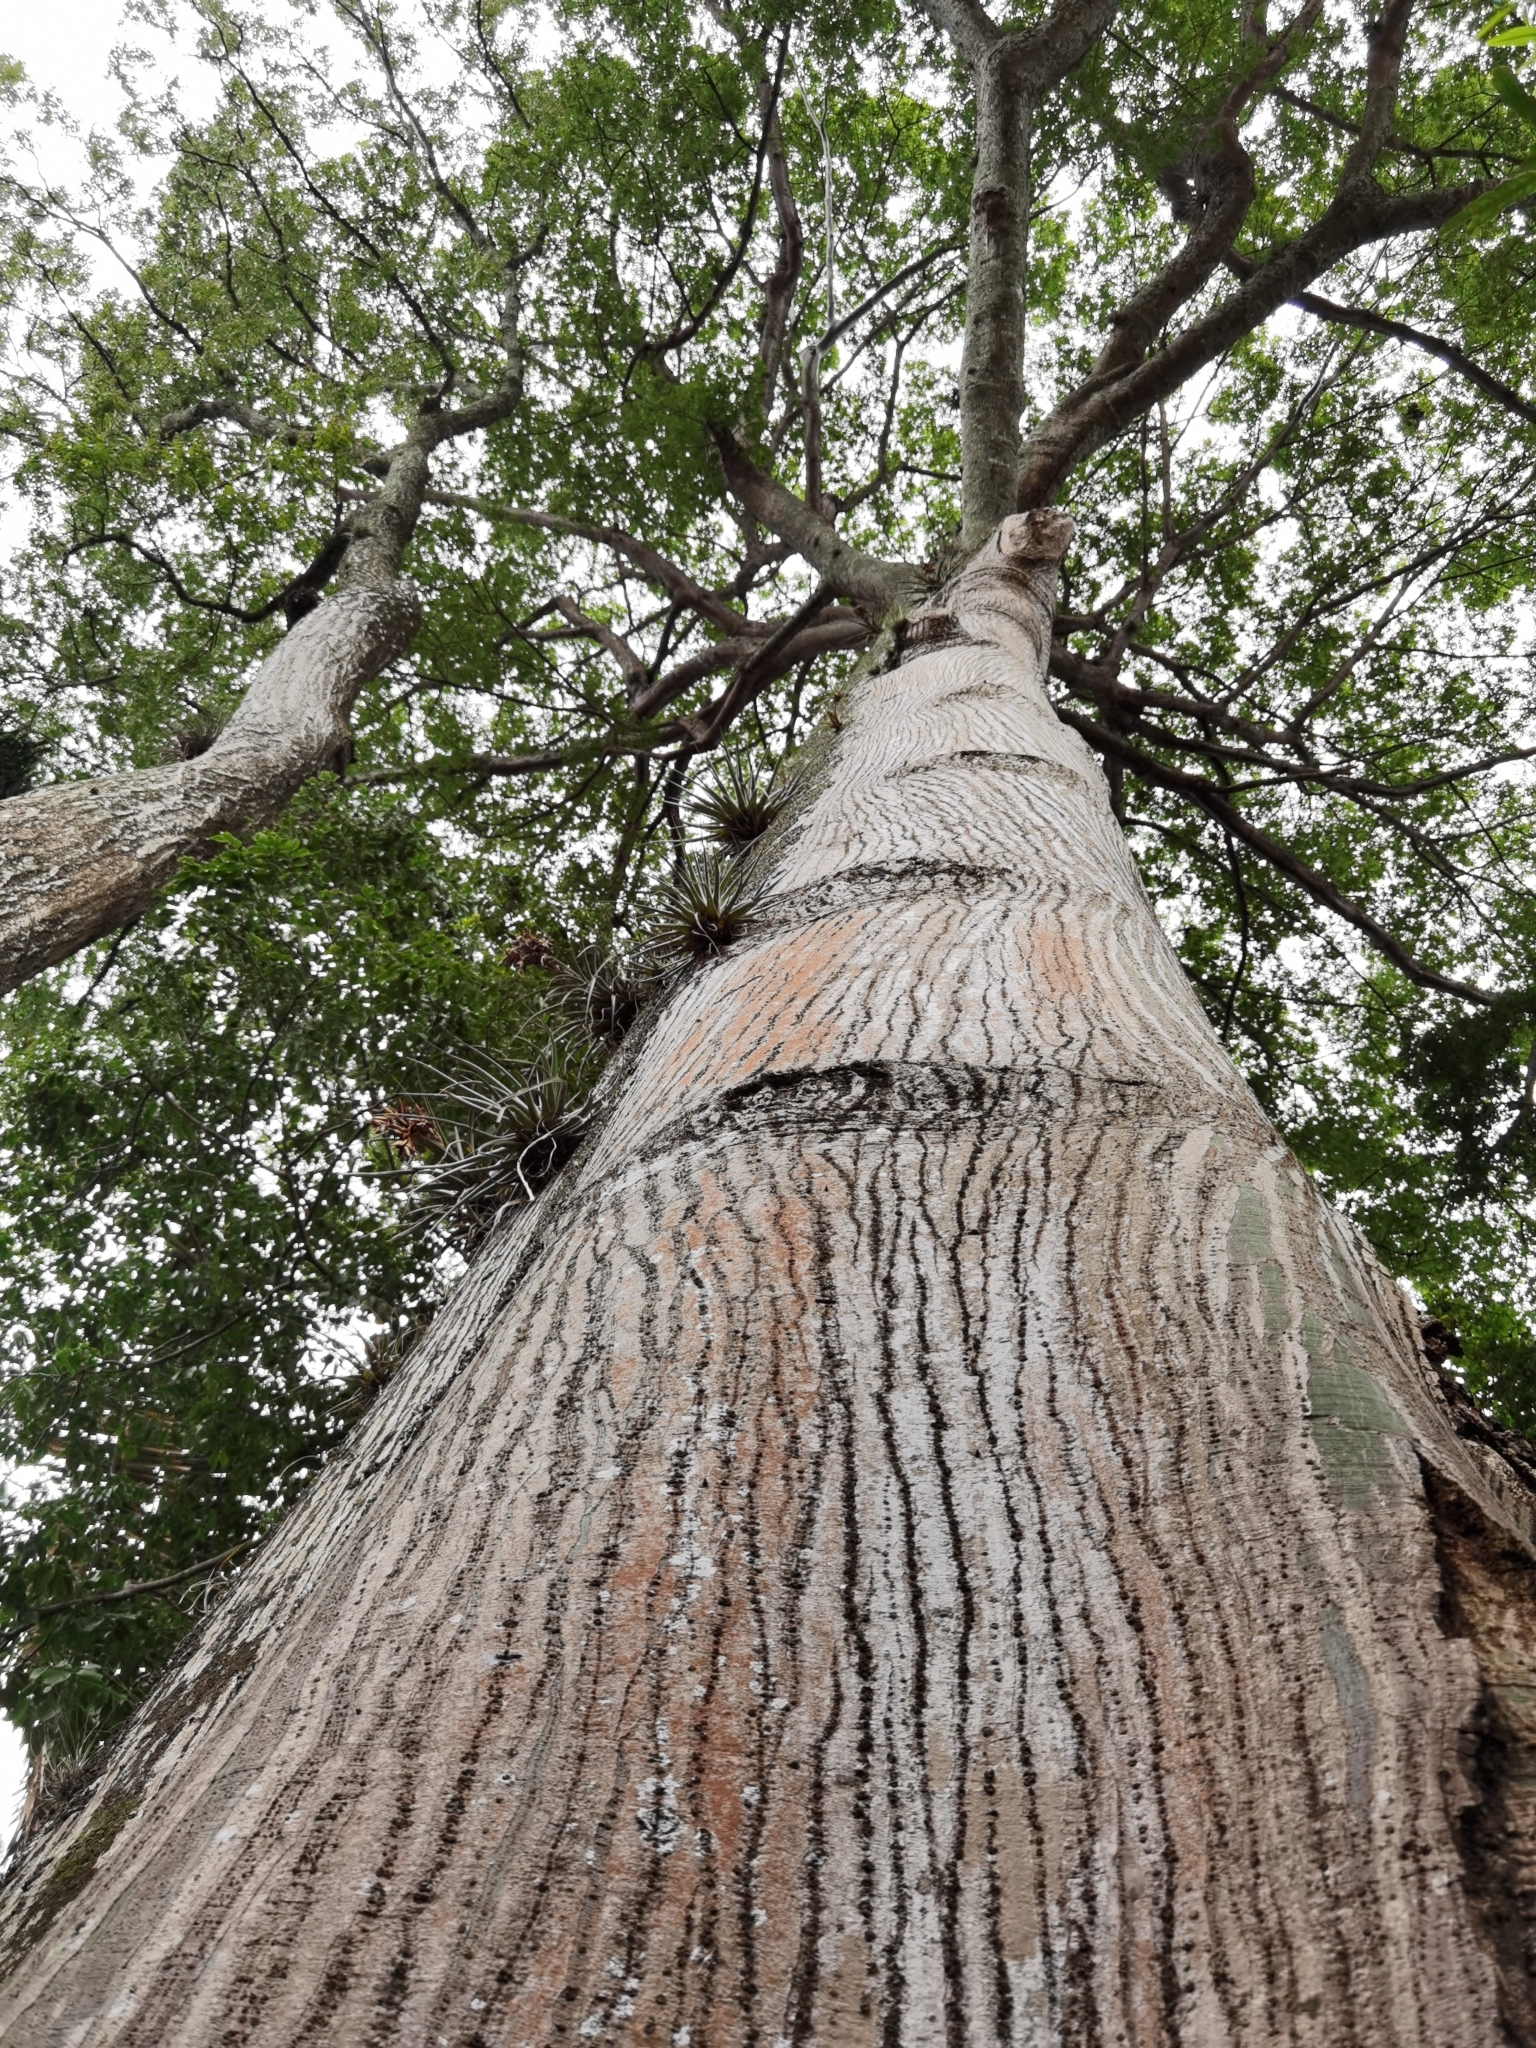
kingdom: Plantae
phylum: Tracheophyta
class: Magnoliopsida
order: Malvales
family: Malvaceae
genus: Ceiba
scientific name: Ceiba pentandra
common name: Kapok
